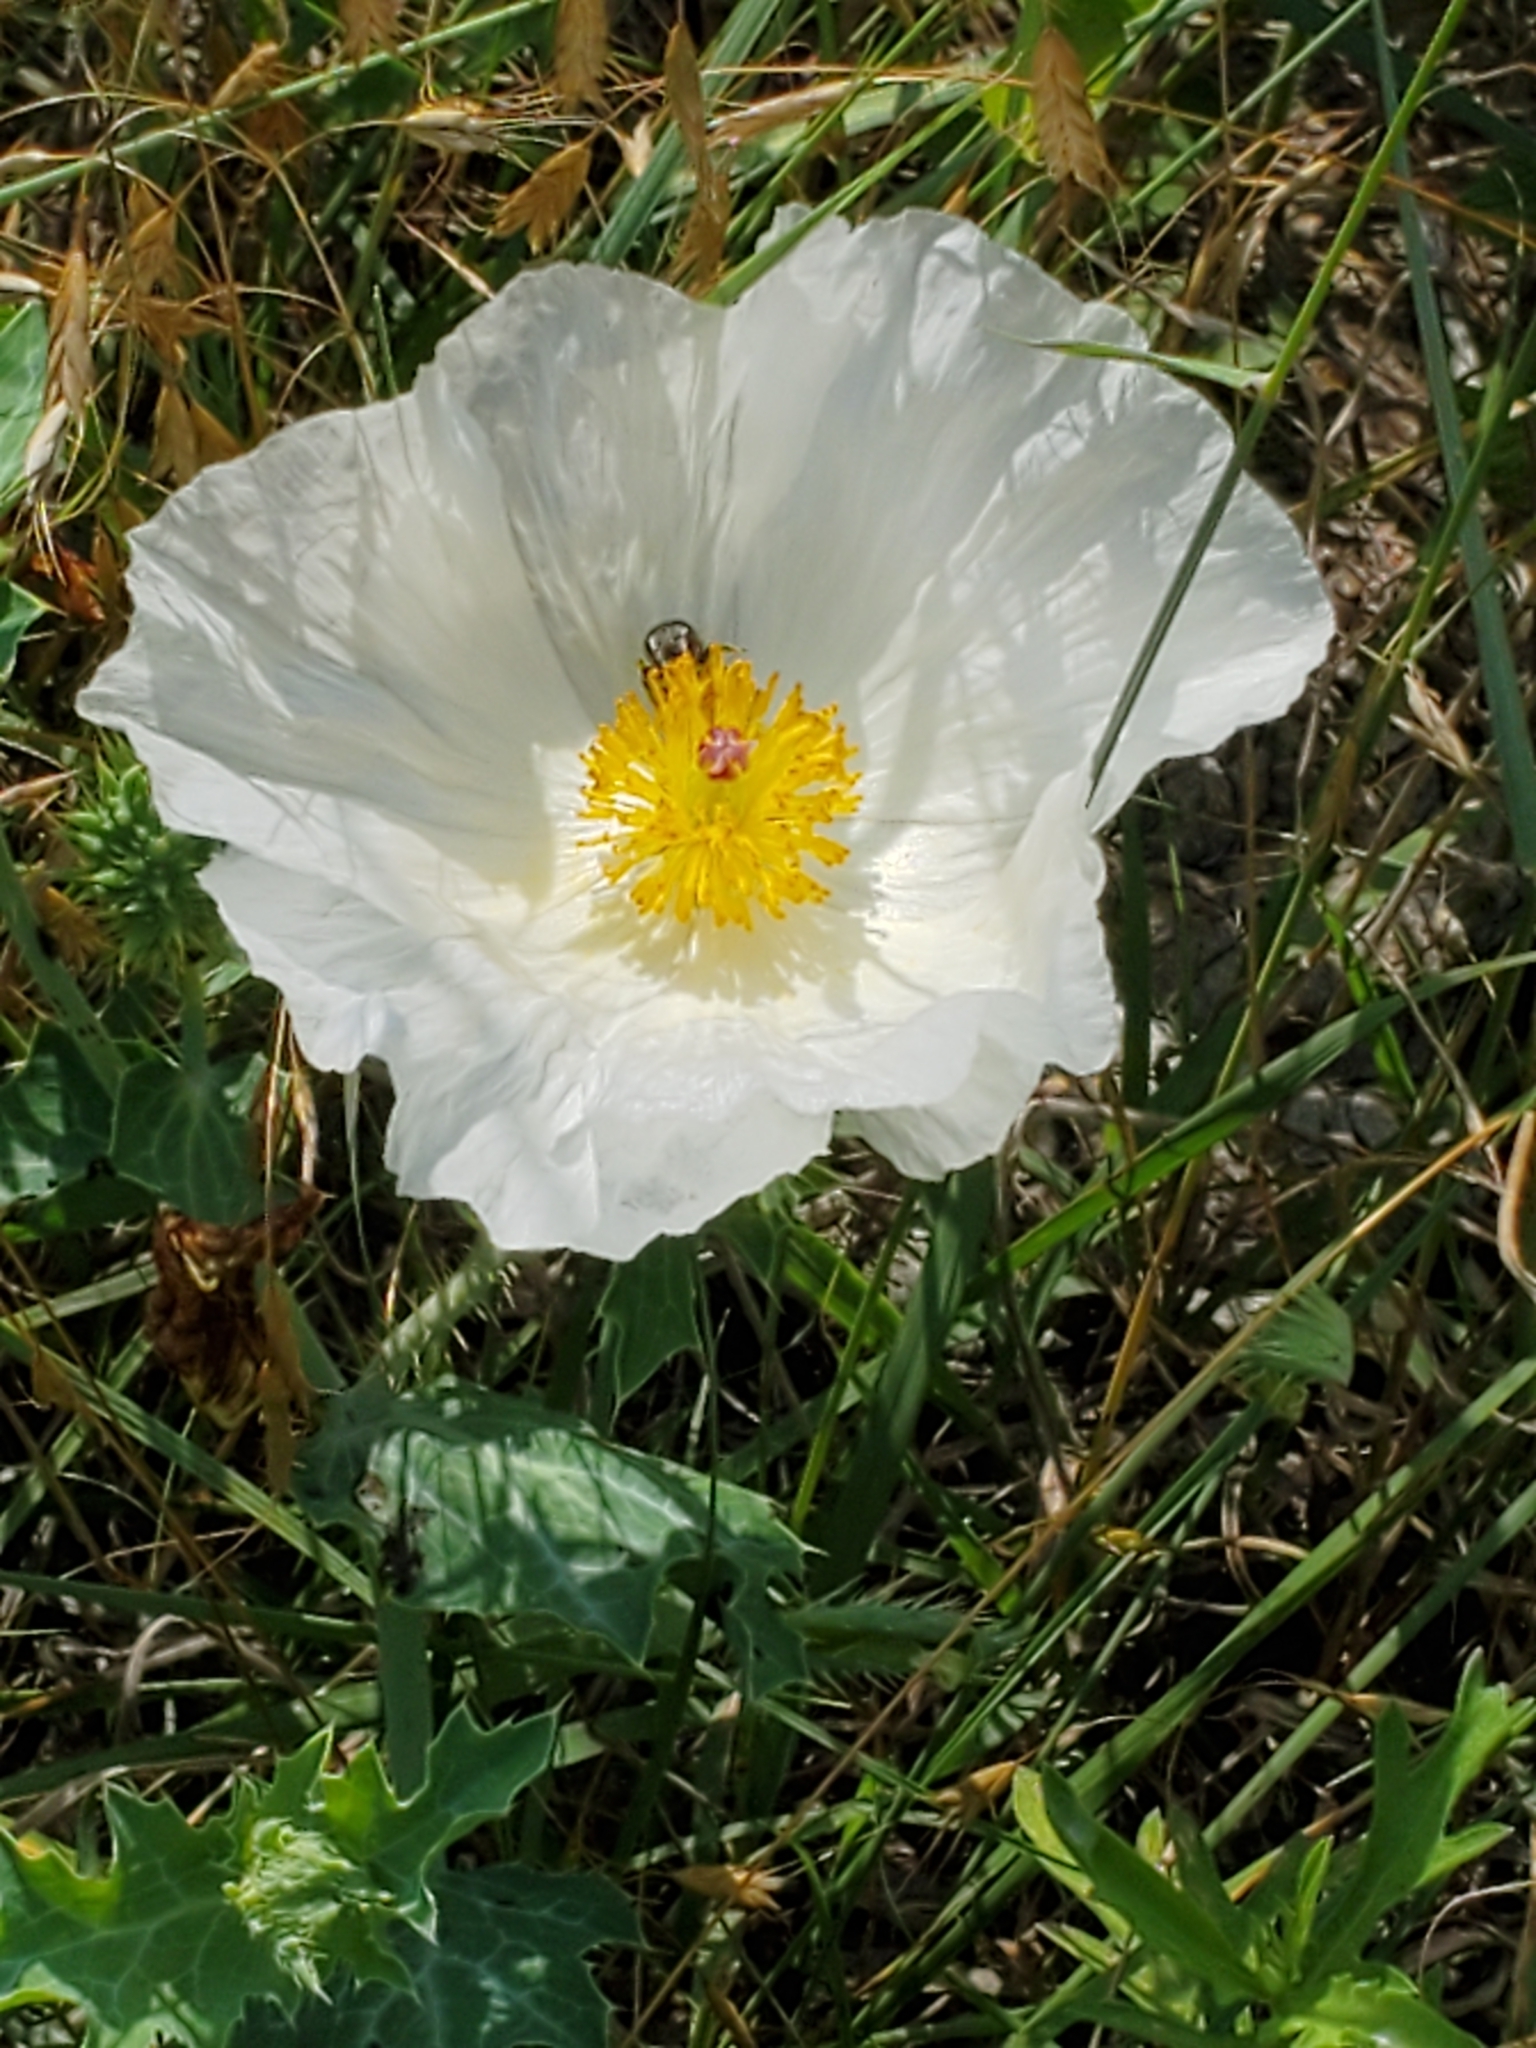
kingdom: Plantae
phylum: Tracheophyta
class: Magnoliopsida
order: Ranunculales
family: Papaveraceae
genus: Argemone
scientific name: Argemone polyanthemos
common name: Plains prickly-poppy
